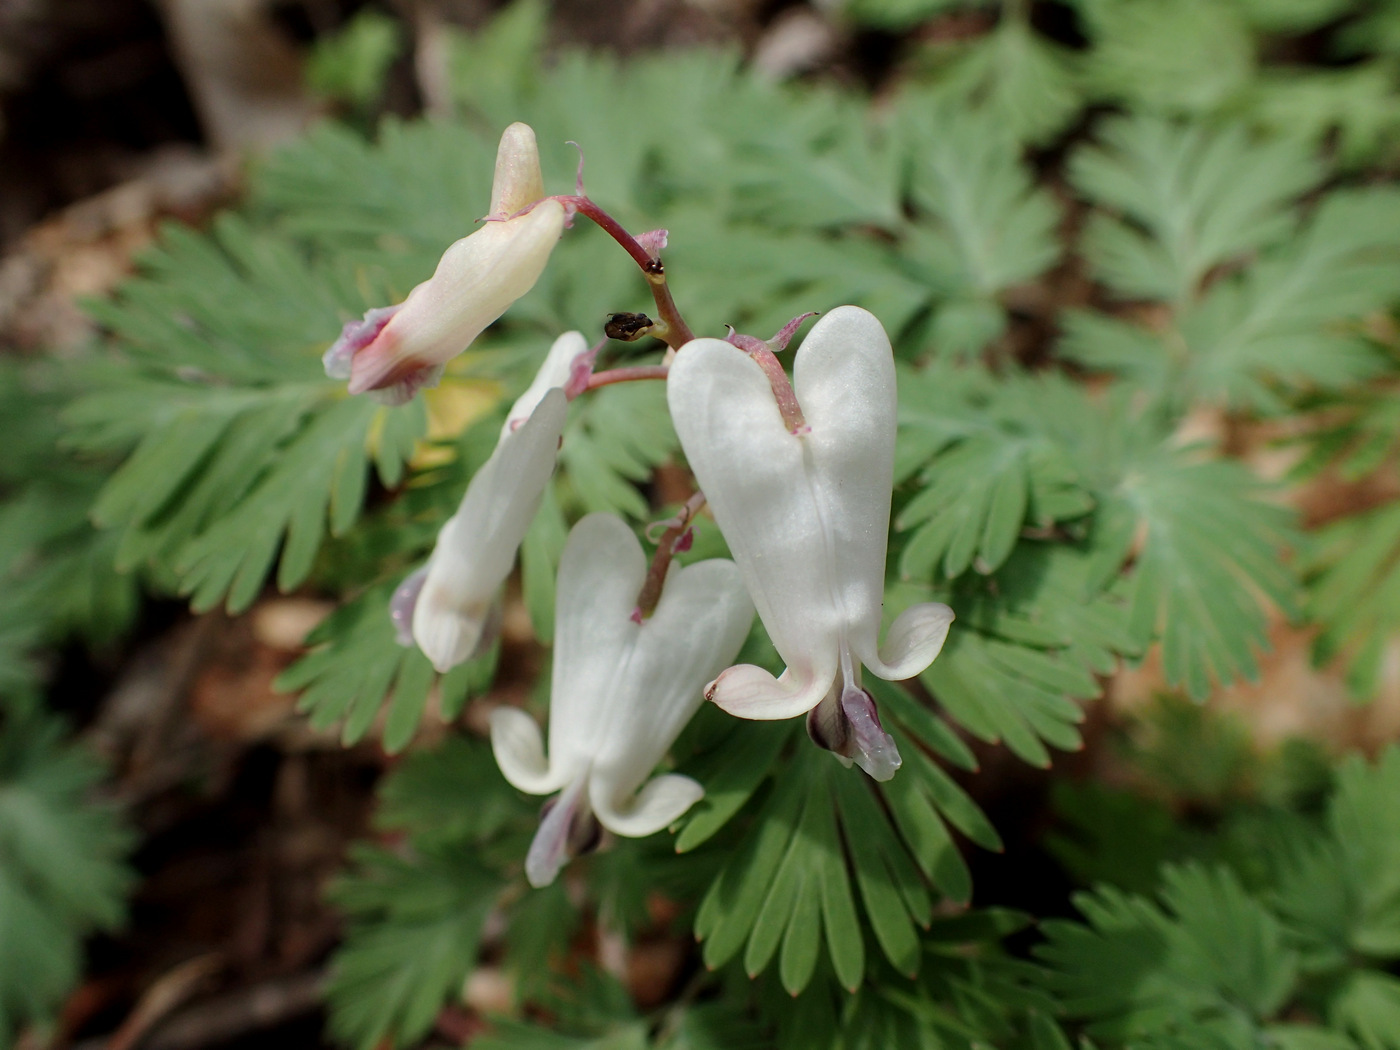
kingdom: Plantae
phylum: Tracheophyta
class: Magnoliopsida
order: Ranunculales
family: Papaveraceae
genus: Dicentra
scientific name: Dicentra canadensis
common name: Squirrel-corn
